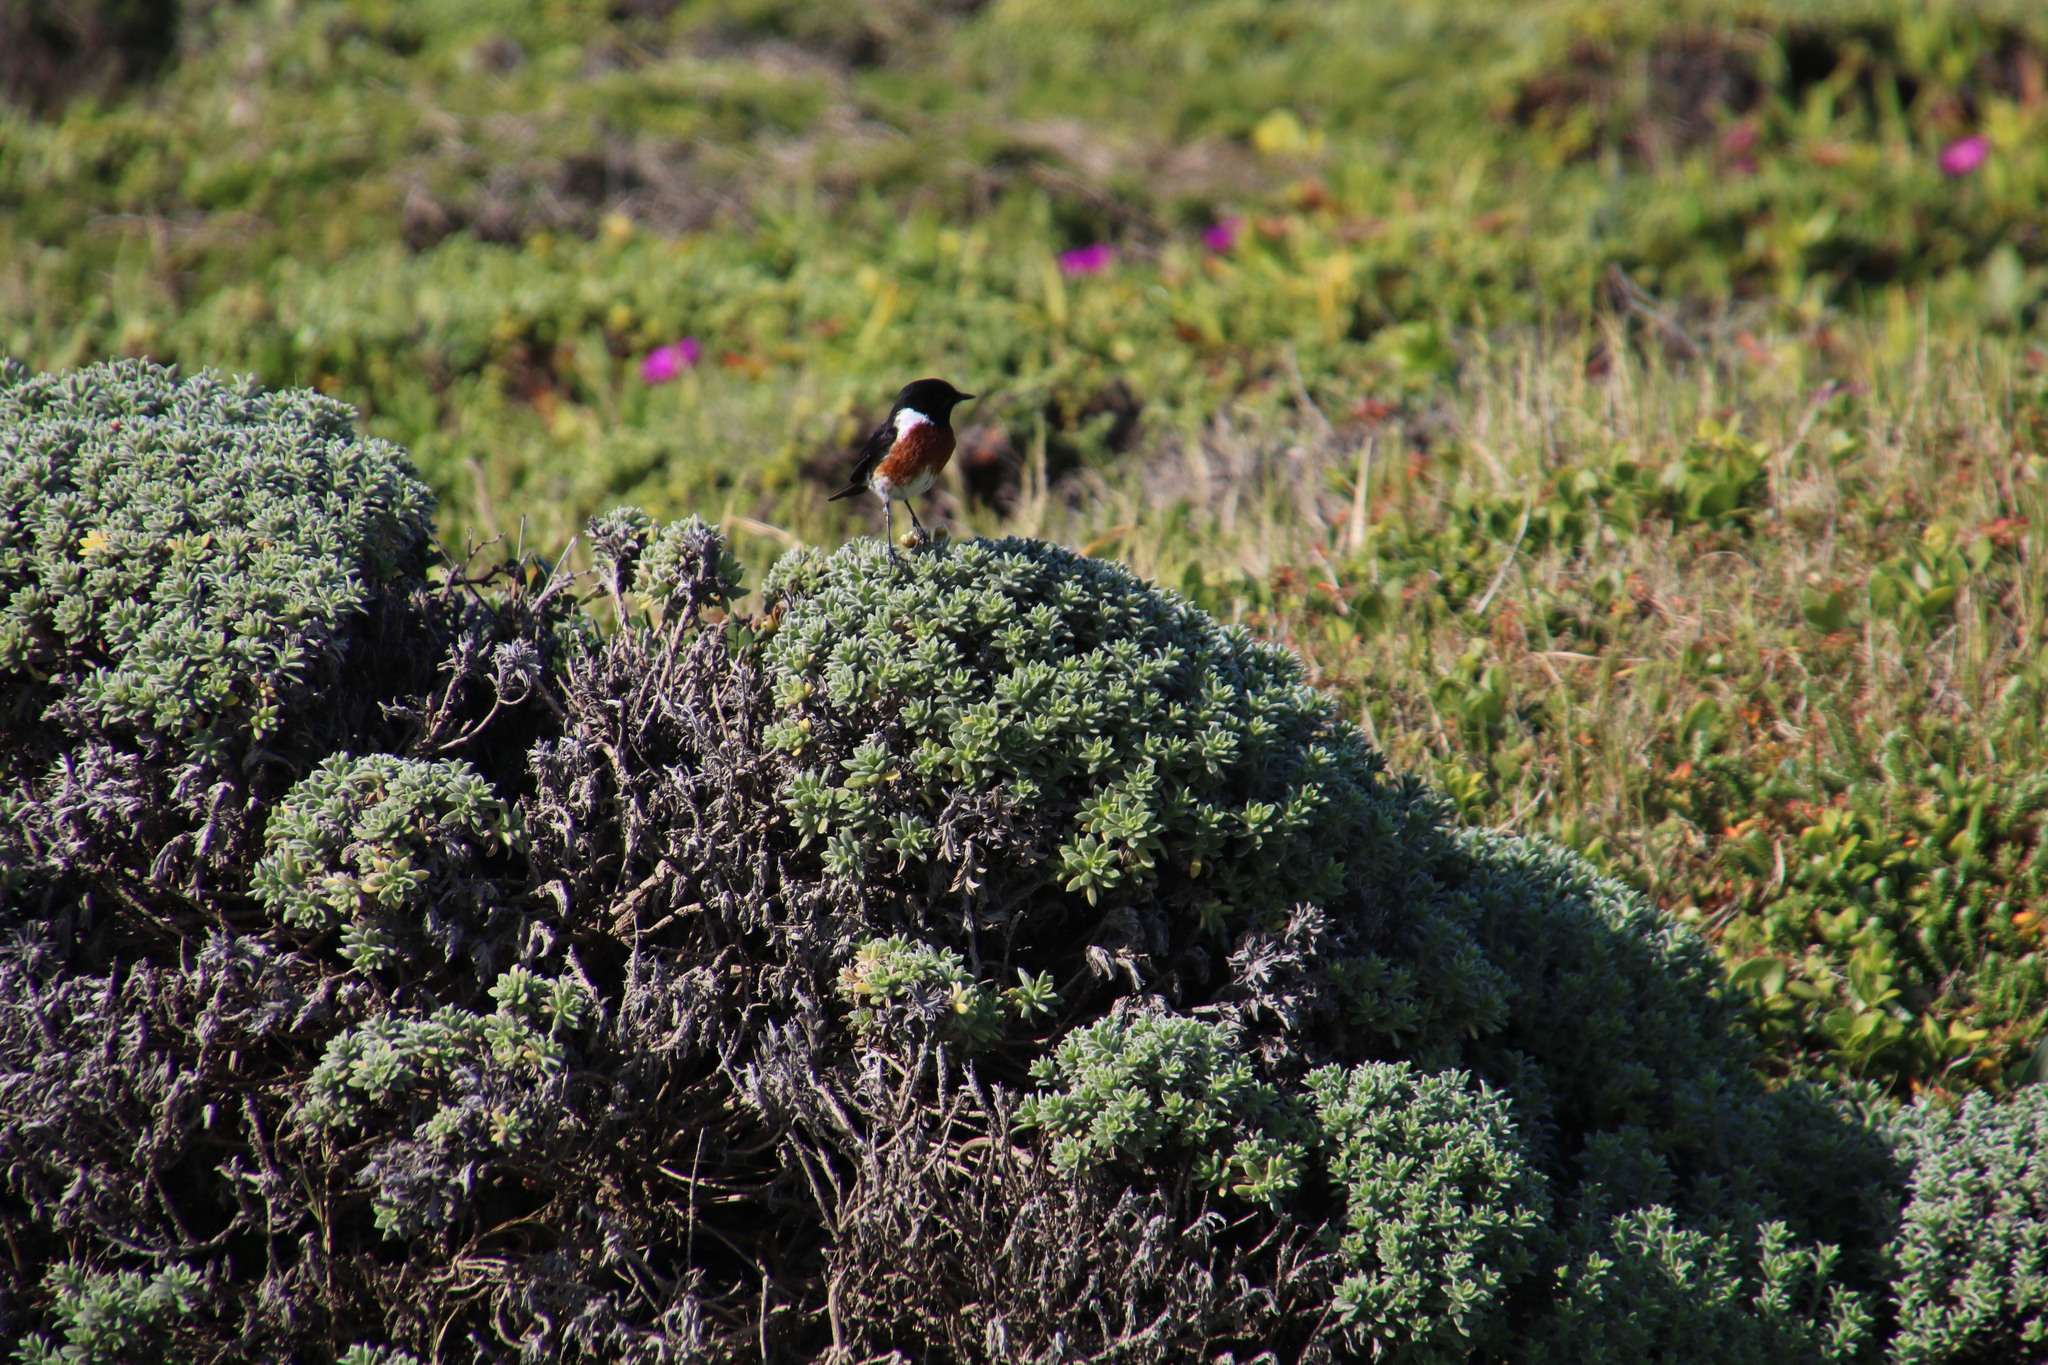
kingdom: Animalia
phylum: Chordata
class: Aves
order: Passeriformes
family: Muscicapidae
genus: Saxicola
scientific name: Saxicola torquatus
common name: African stonechat
